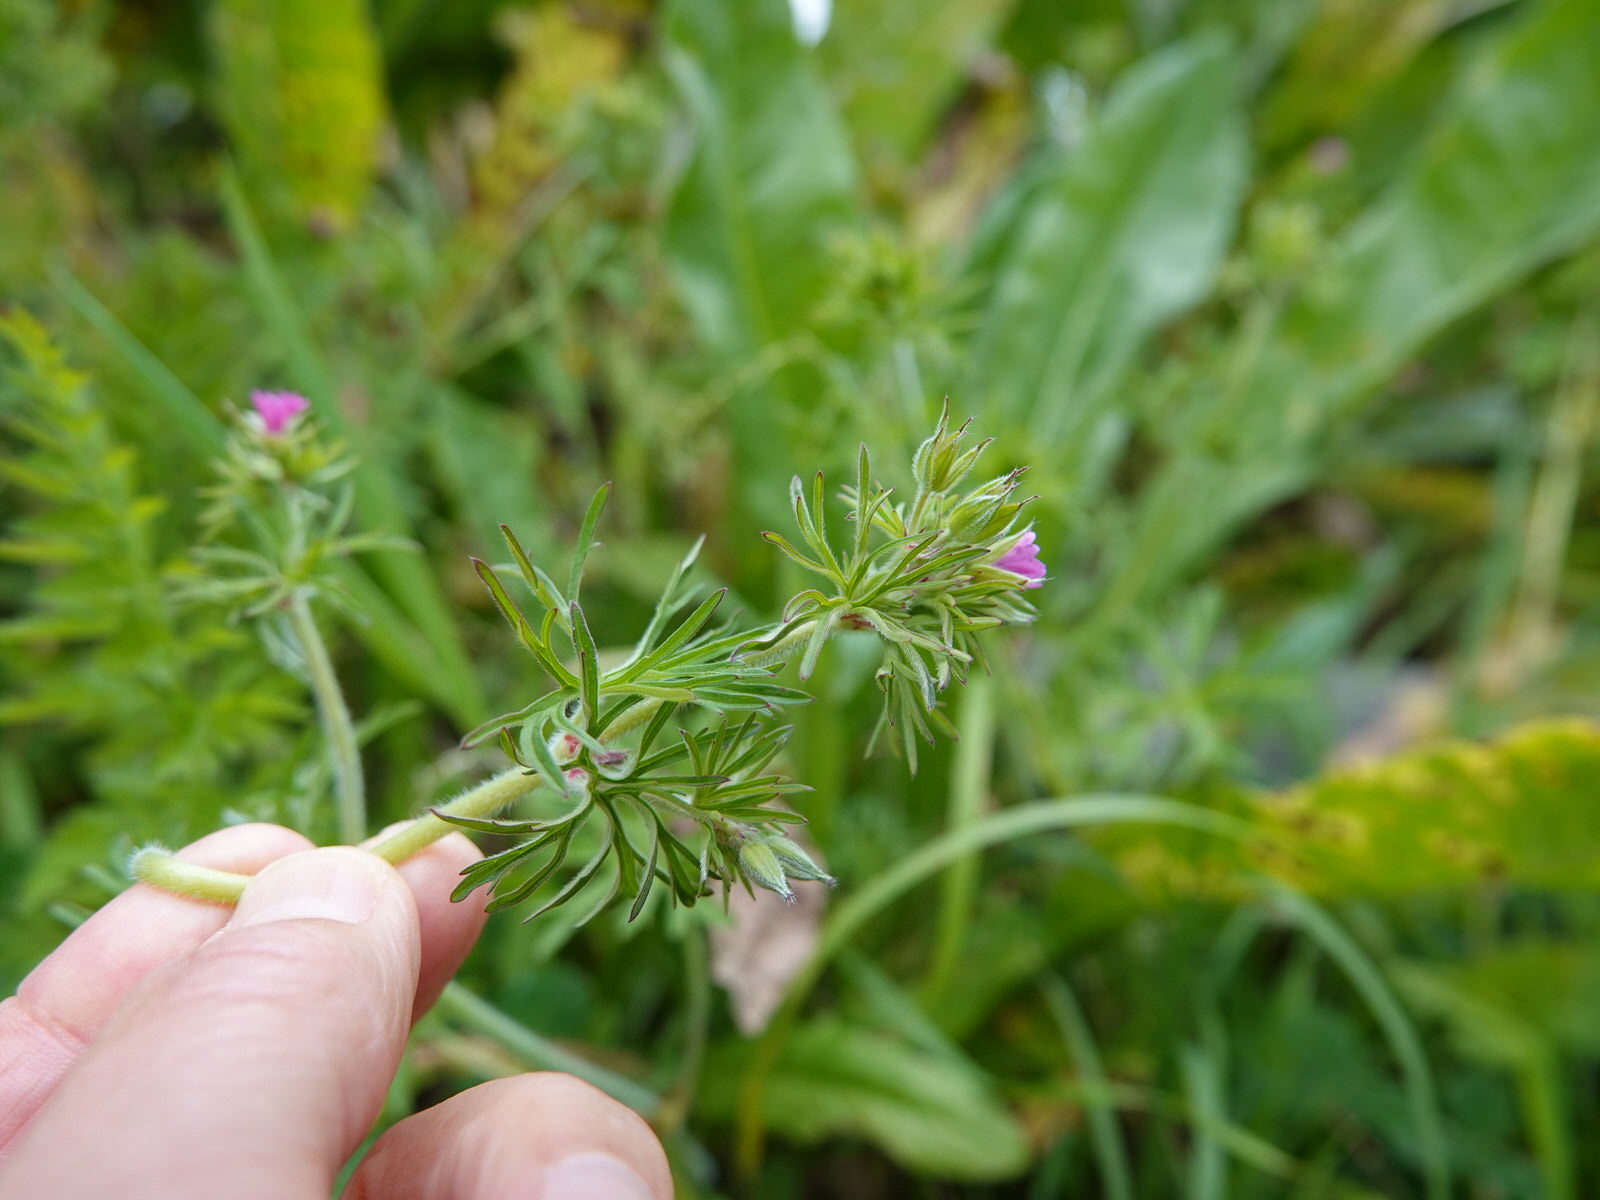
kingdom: Plantae
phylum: Tracheophyta
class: Magnoliopsida
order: Geraniales
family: Geraniaceae
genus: Geranium
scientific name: Geranium dissectum
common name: Cut-leaved crane's-bill
